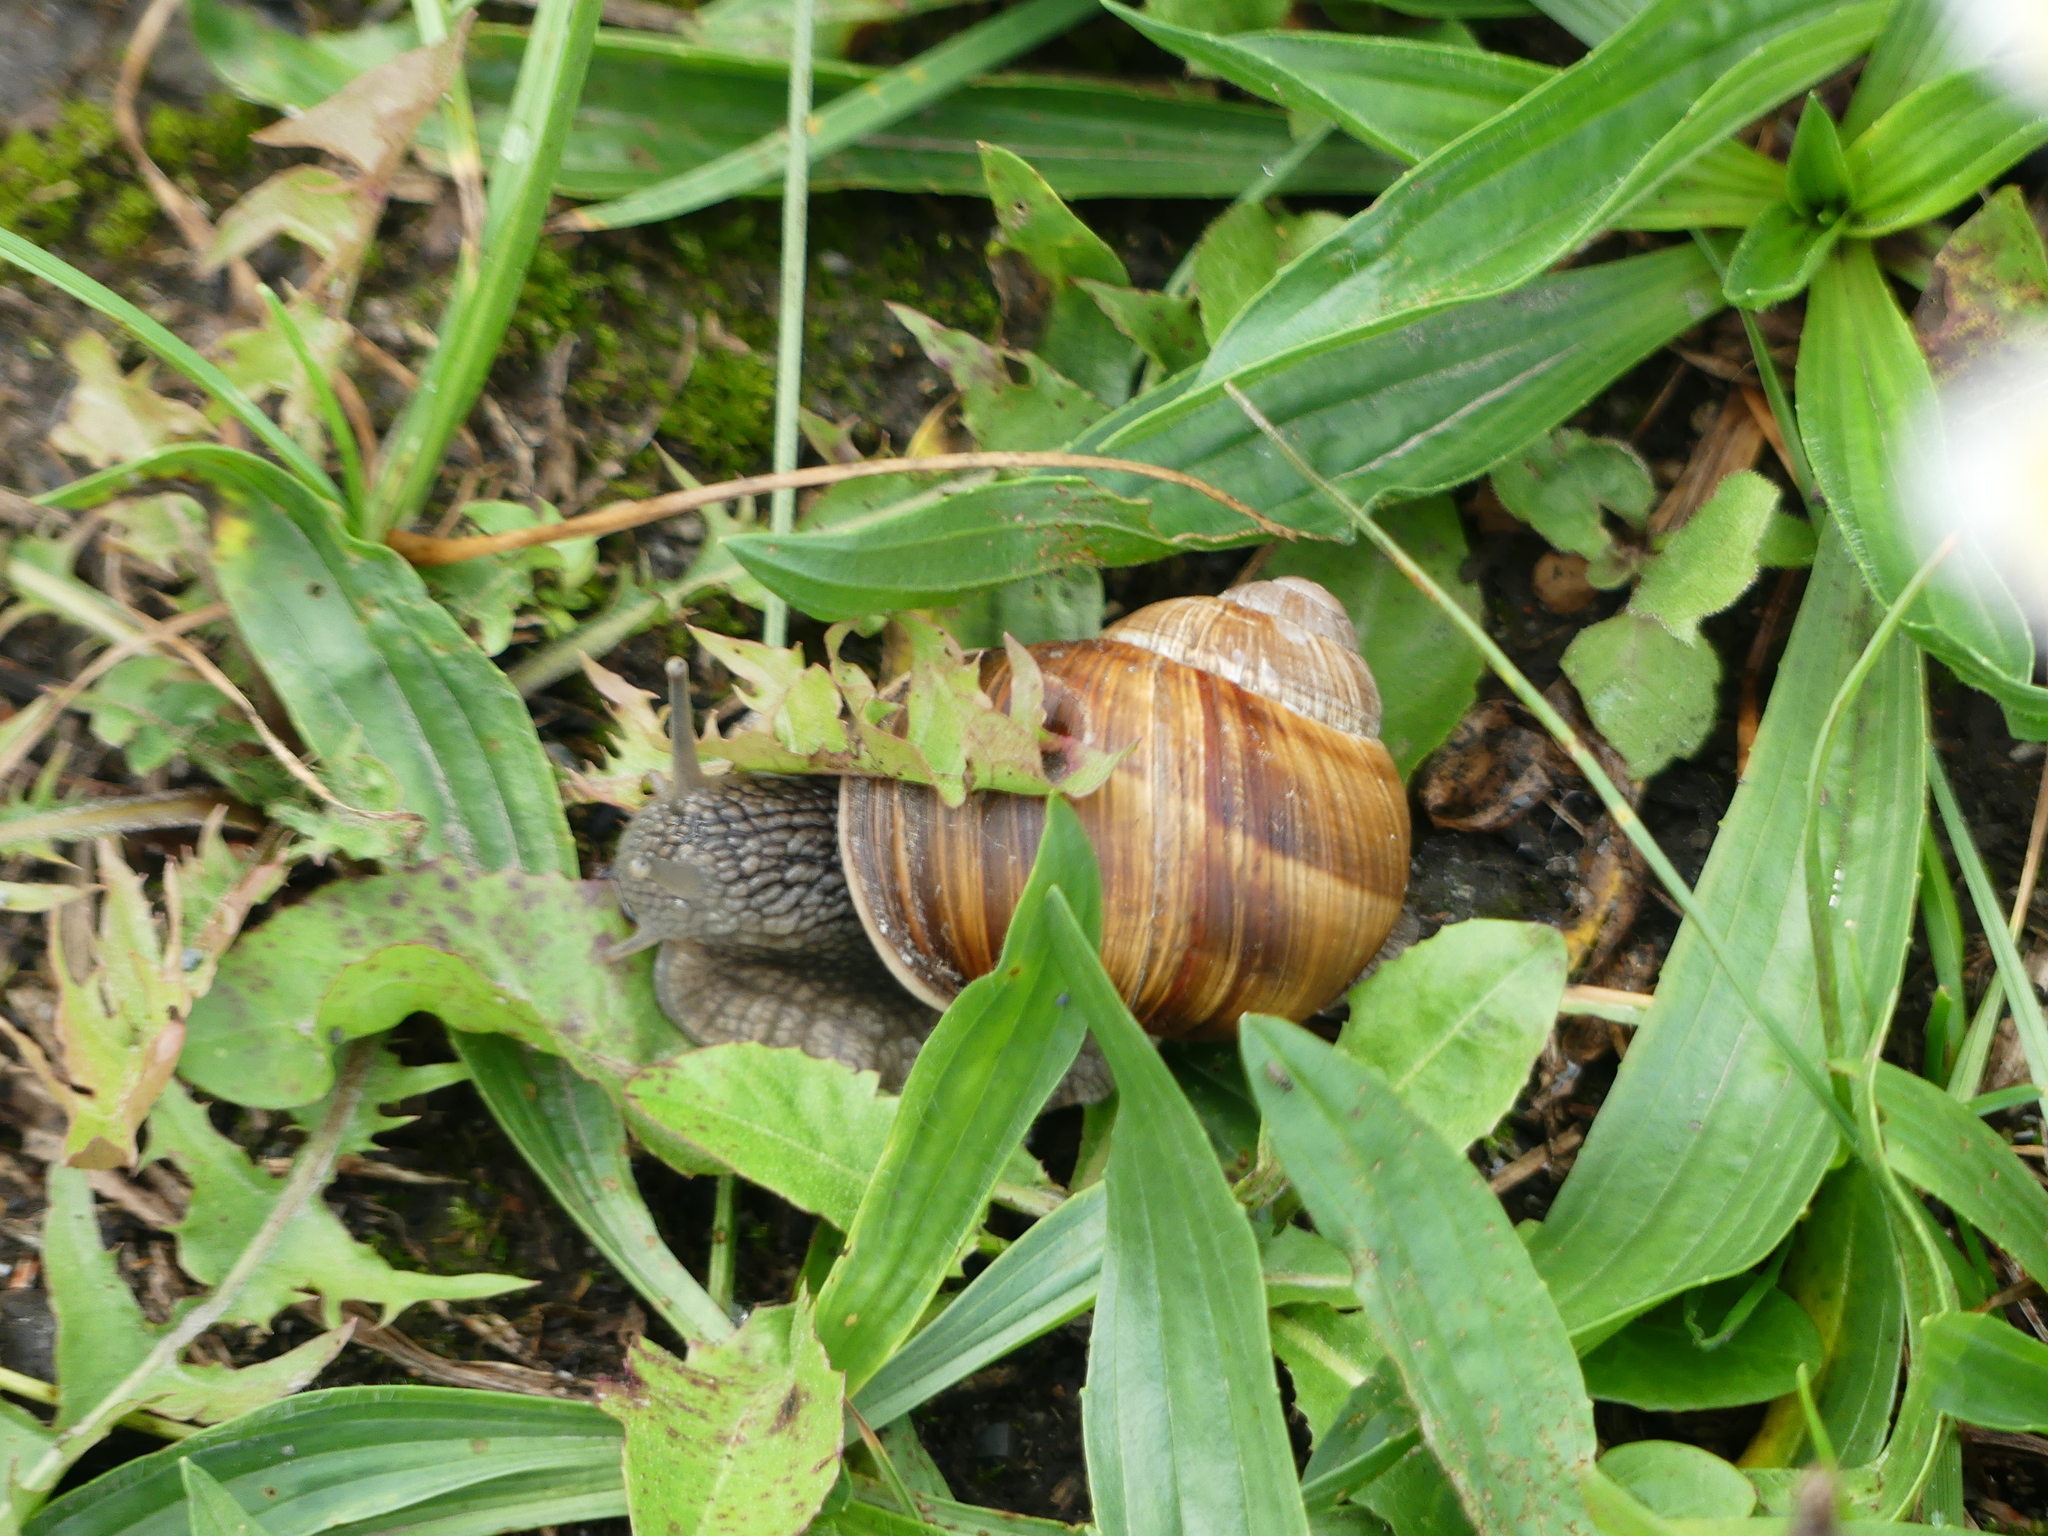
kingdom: Animalia
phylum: Mollusca
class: Gastropoda
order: Stylommatophora
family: Helicidae
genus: Helix
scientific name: Helix pomatia
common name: Roman snail
